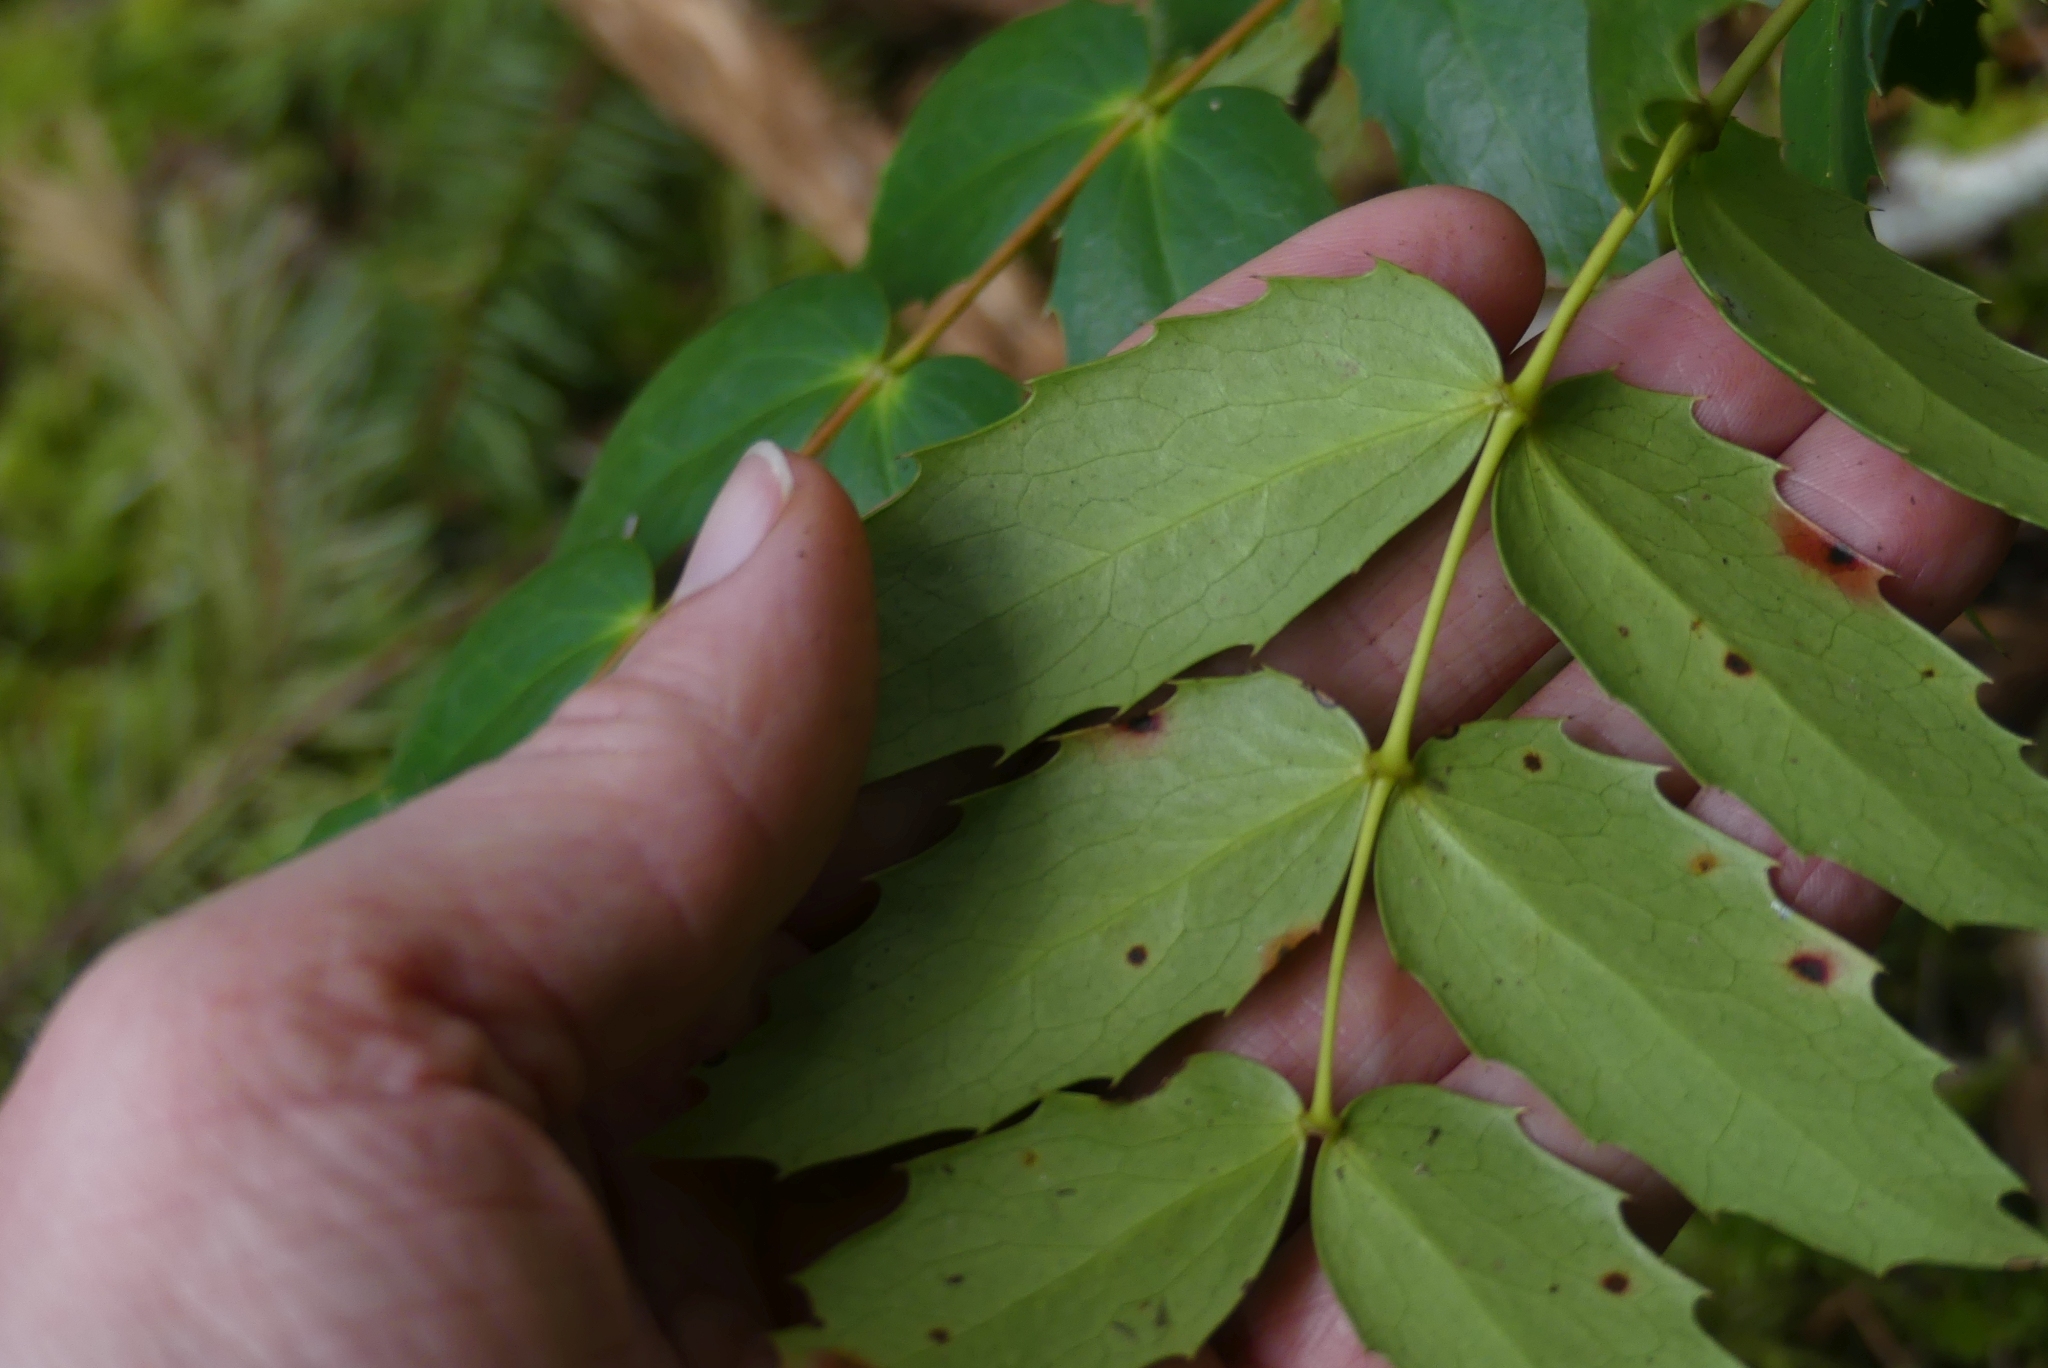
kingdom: Plantae
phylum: Tracheophyta
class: Magnoliopsida
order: Ranunculales
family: Berberidaceae
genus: Mahonia
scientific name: Mahonia nervosa
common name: Cascade oregon-grape
